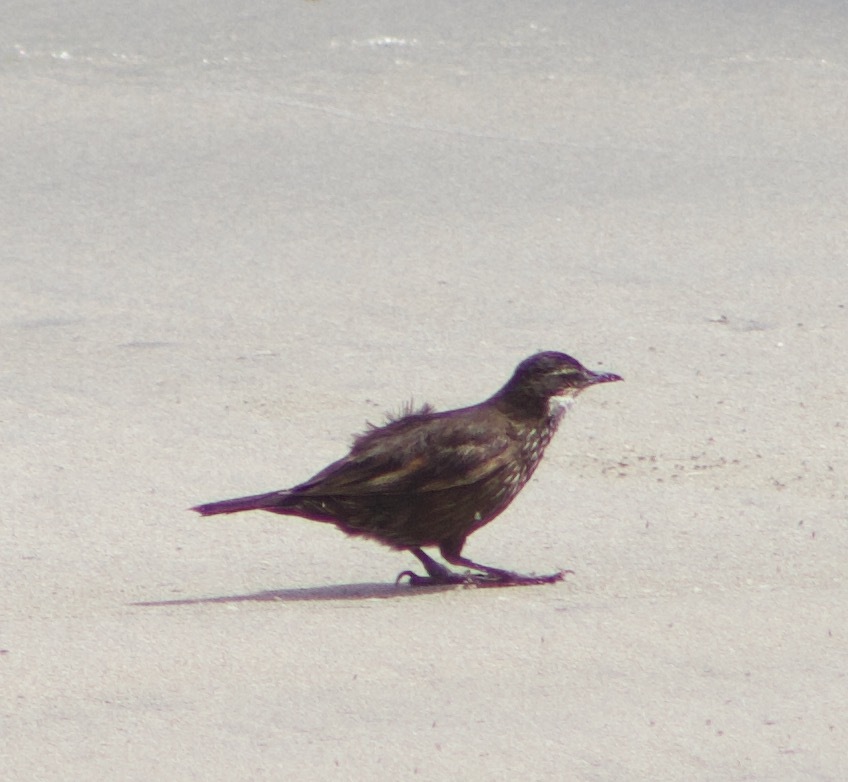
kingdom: Animalia
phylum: Chordata
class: Aves
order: Passeriformes
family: Furnariidae
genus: Cinclodes
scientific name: Cinclodes nigrofumosus
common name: Chilean seaside cinclodes
